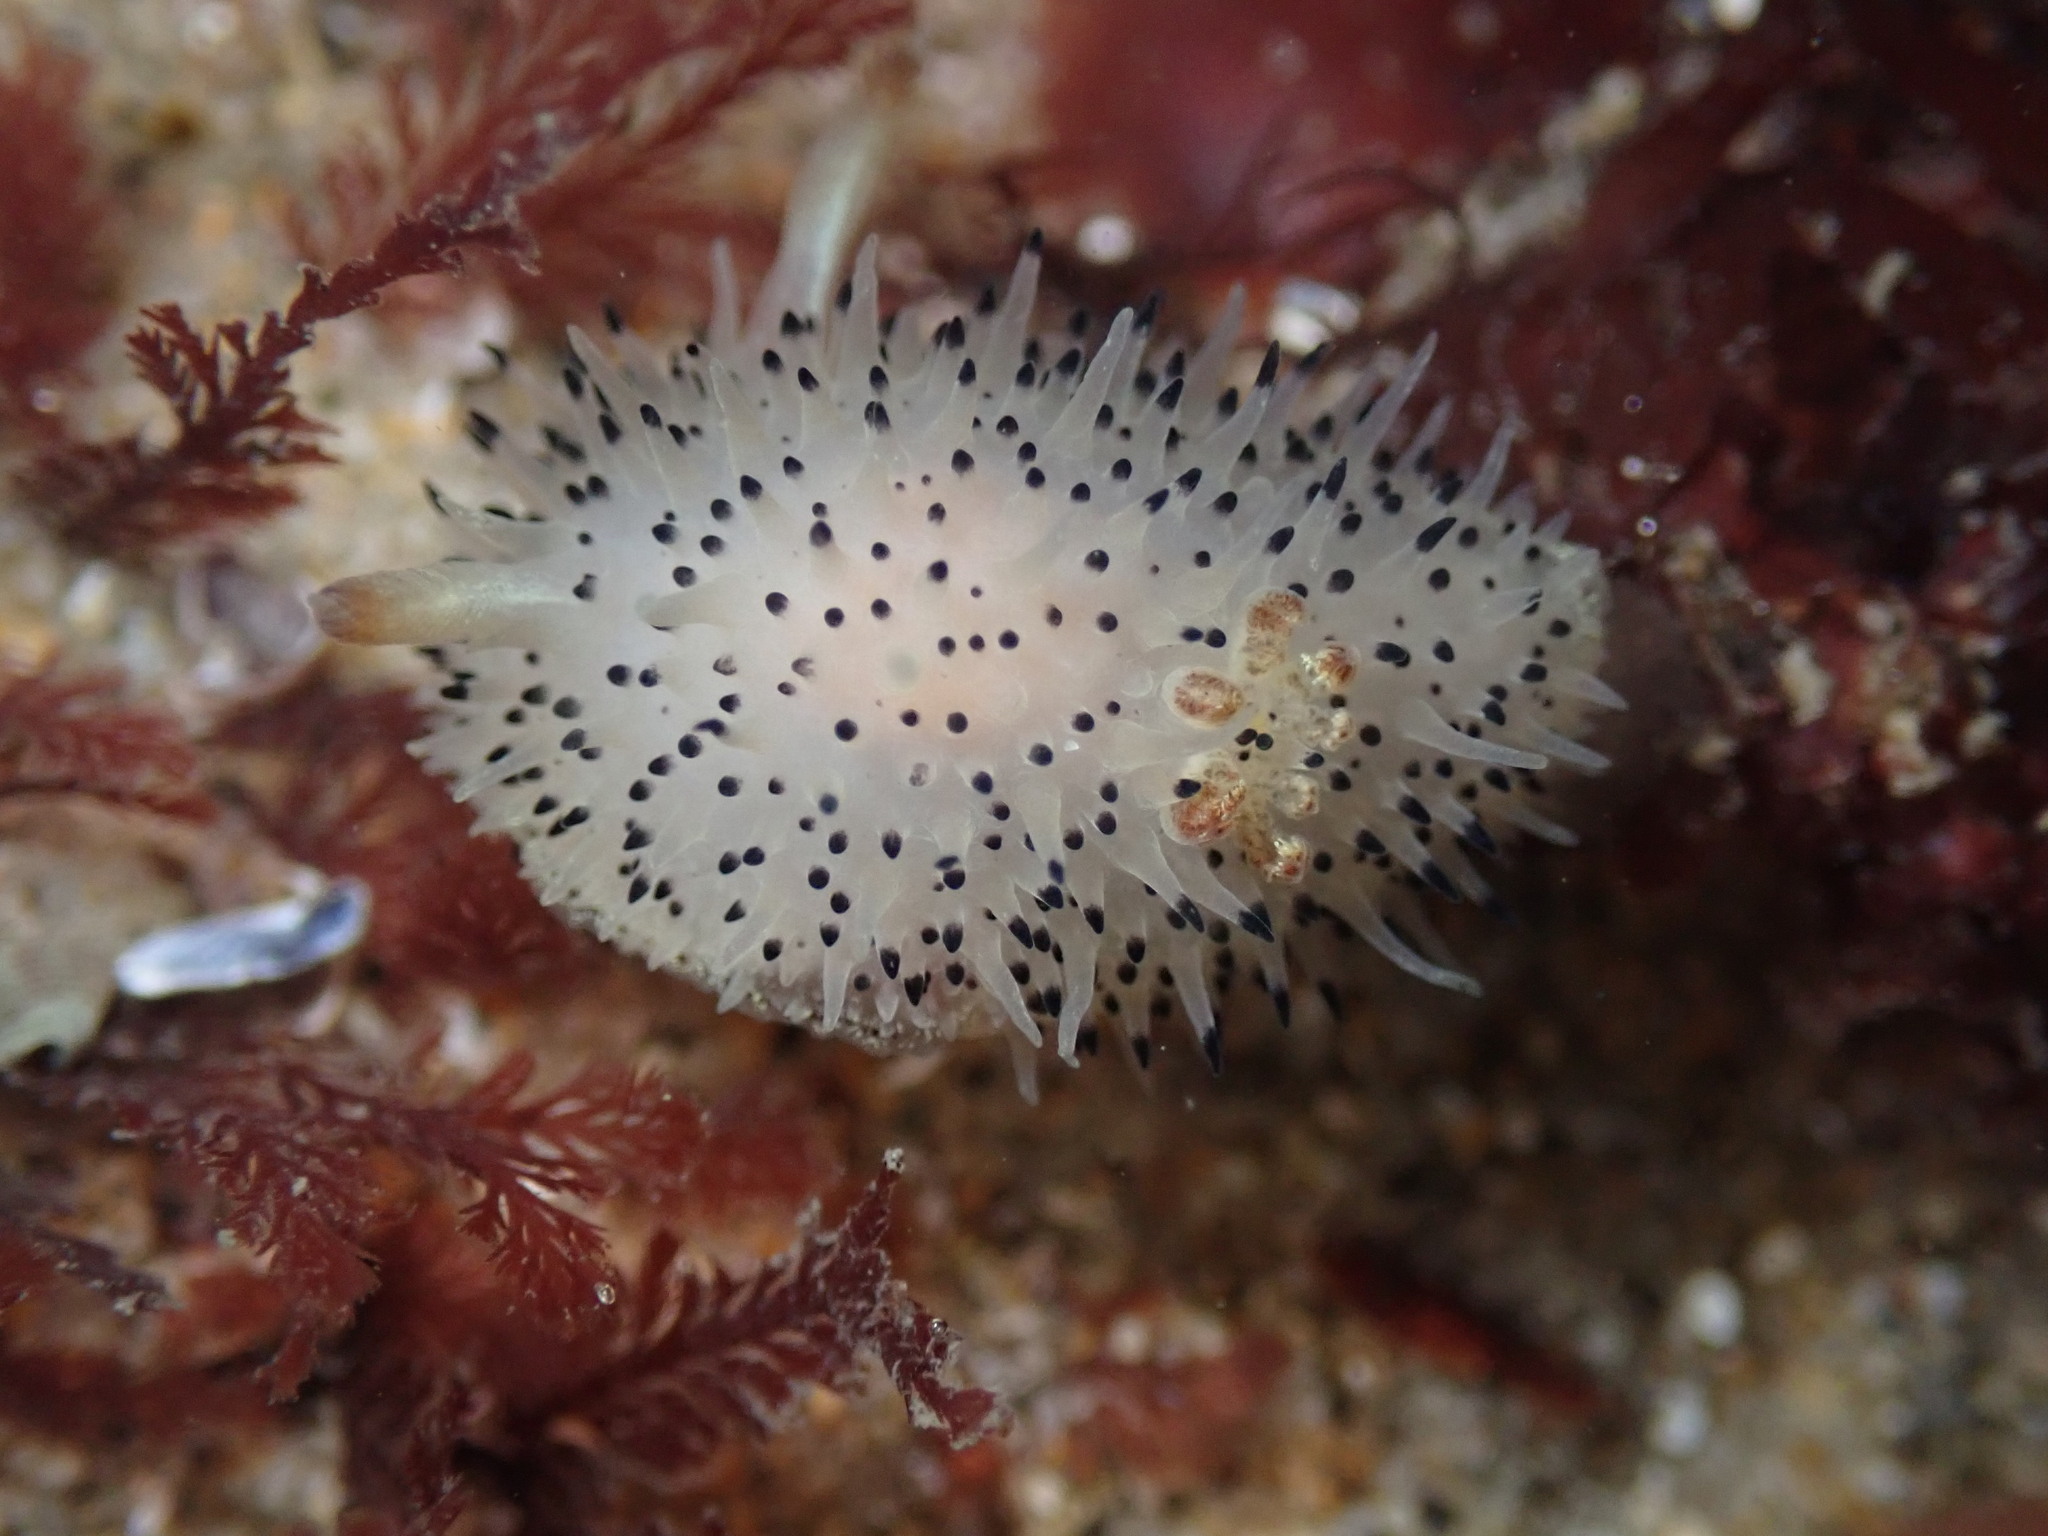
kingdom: Animalia
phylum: Mollusca
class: Gastropoda
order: Nudibranchia
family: Onchidorididae
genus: Acanthodoris
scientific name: Acanthodoris rhodoceras
